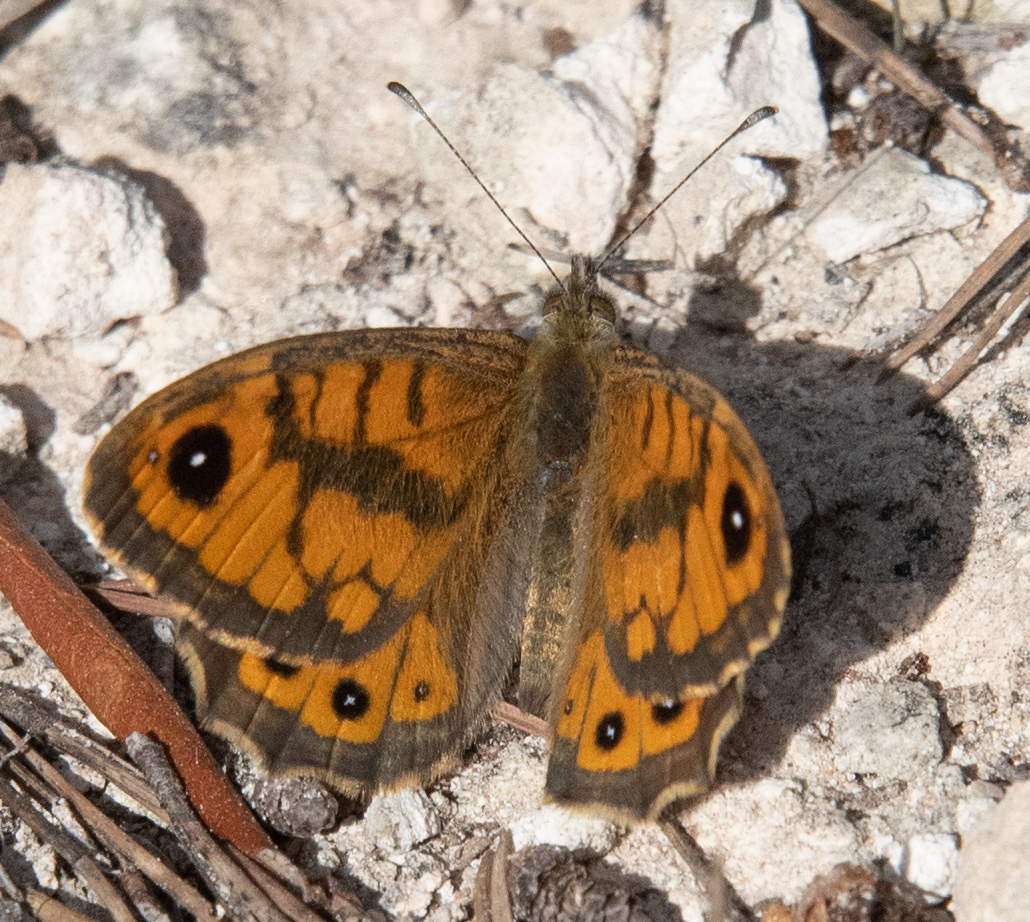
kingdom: Animalia
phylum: Arthropoda
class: Insecta
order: Lepidoptera
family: Nymphalidae
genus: Pararge
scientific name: Pararge Lasiommata megera
